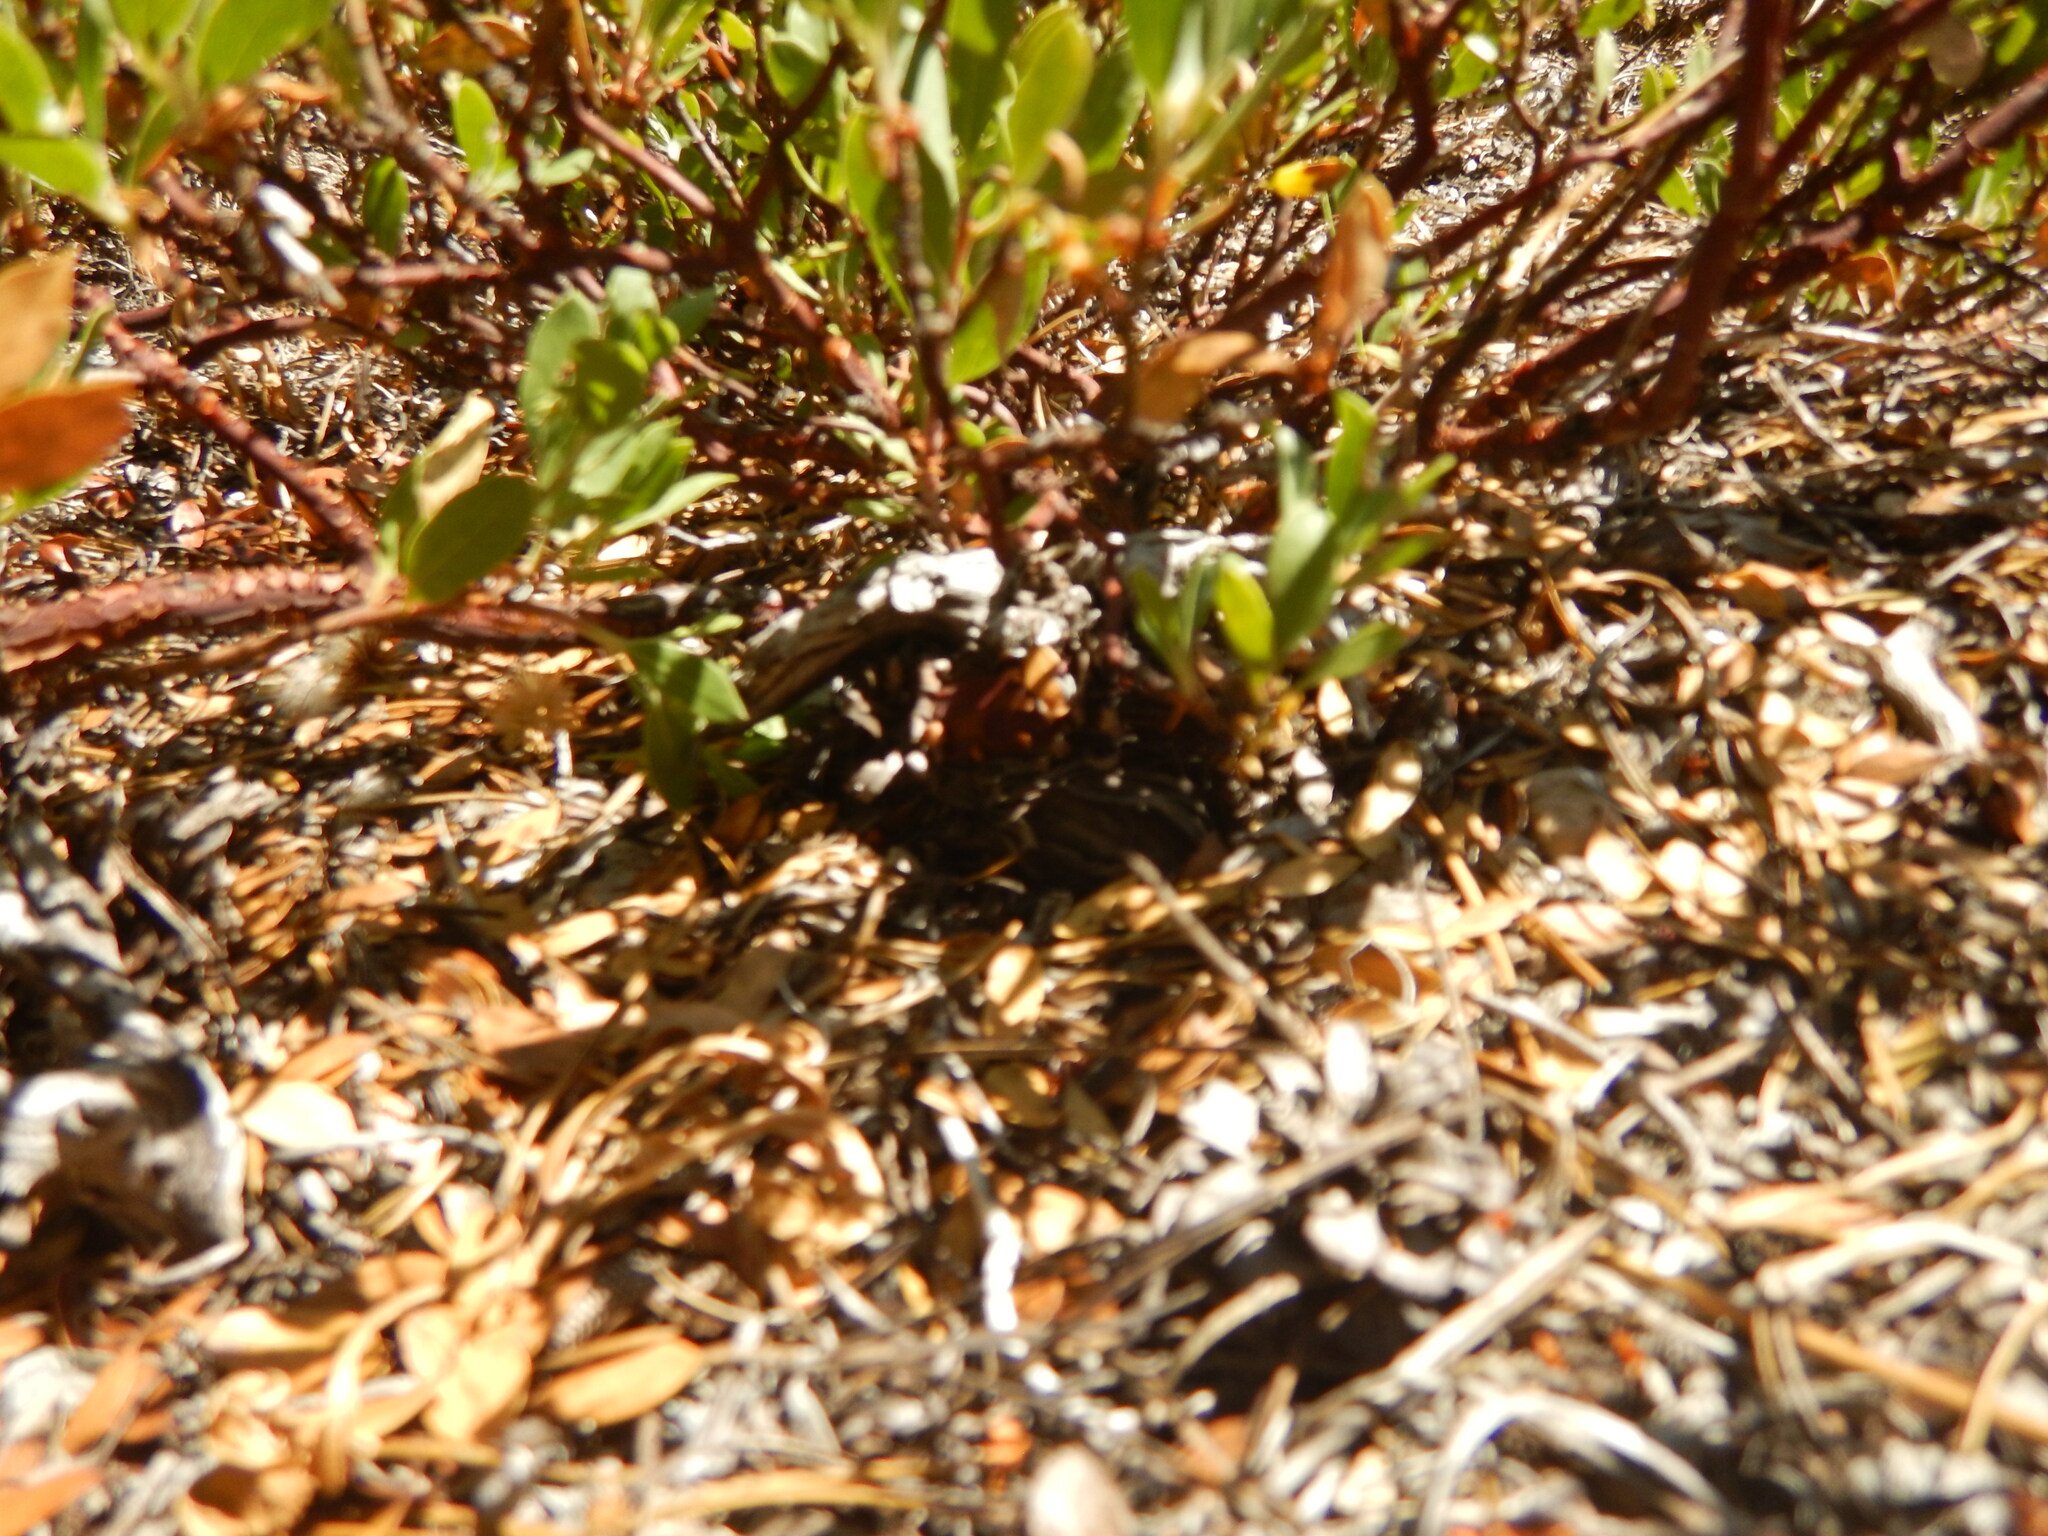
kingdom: Plantae
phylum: Tracheophyta
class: Magnoliopsida
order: Ericales
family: Ericaceae
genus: Arctostaphylos
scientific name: Arctostaphylos nevadensis
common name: Pinemat manzanita
